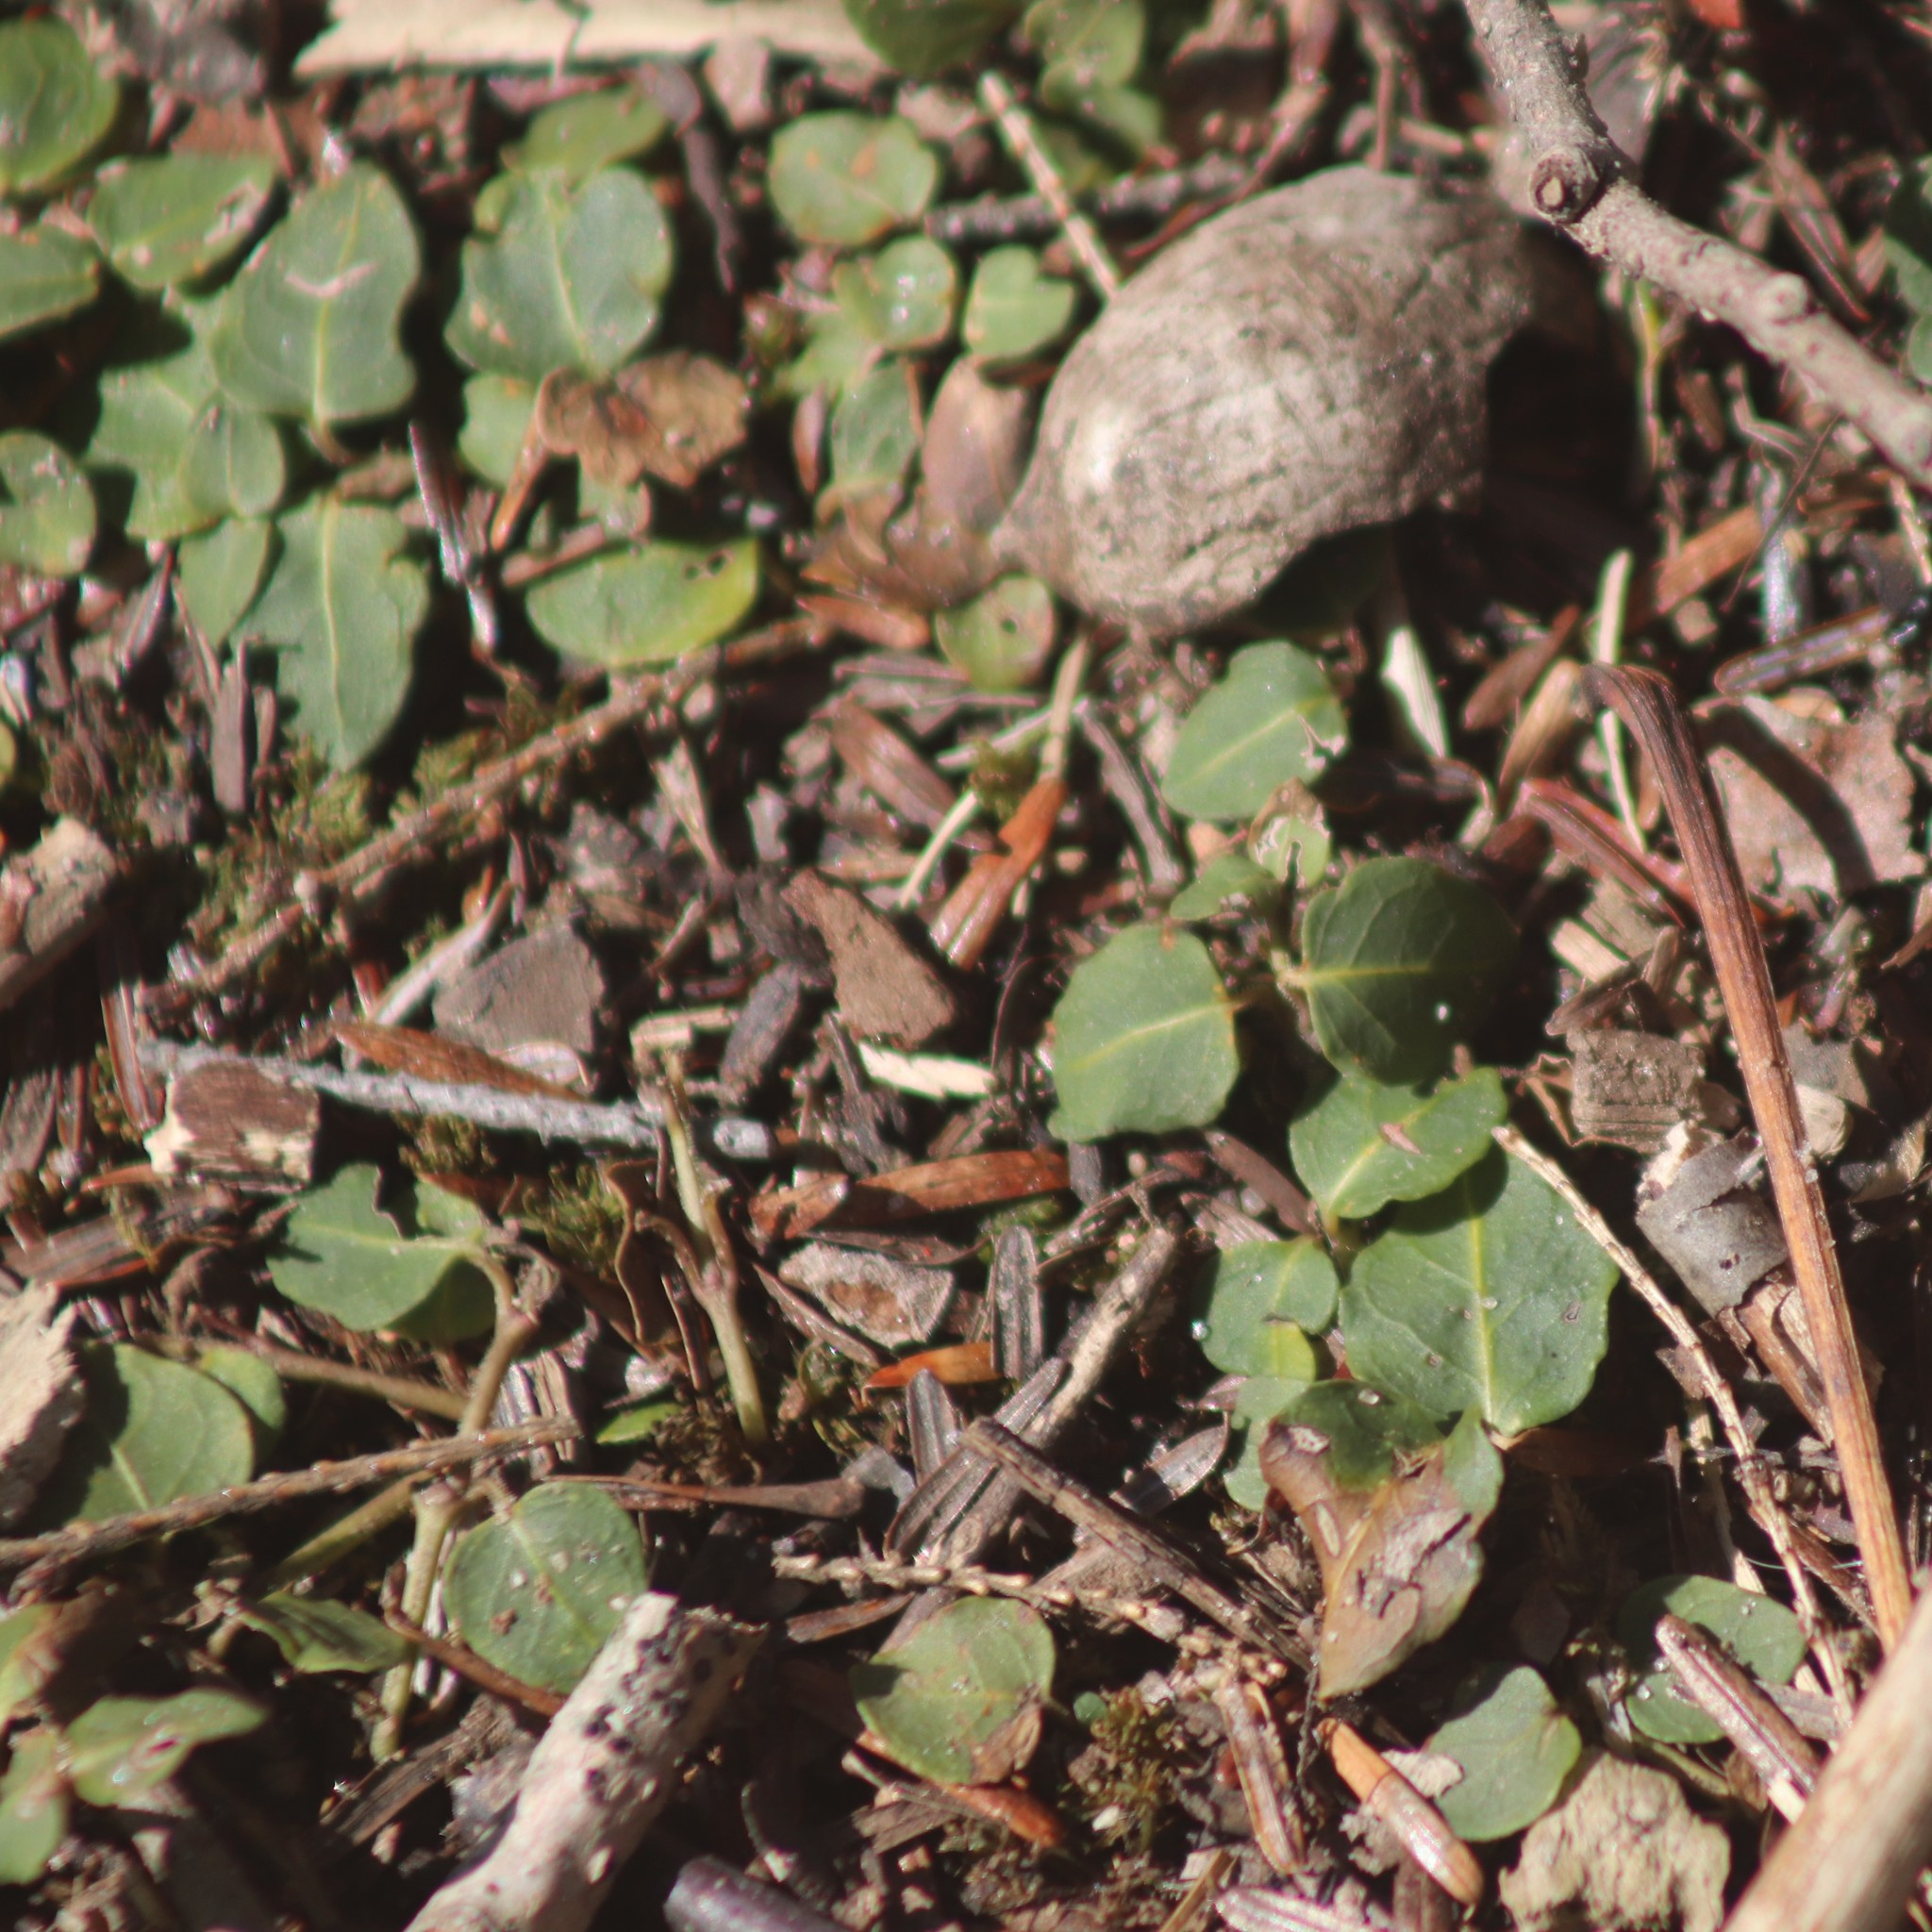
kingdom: Plantae
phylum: Tracheophyta
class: Magnoliopsida
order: Gentianales
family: Rubiaceae
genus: Mitchella
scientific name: Mitchella repens
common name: Partridge-berry
